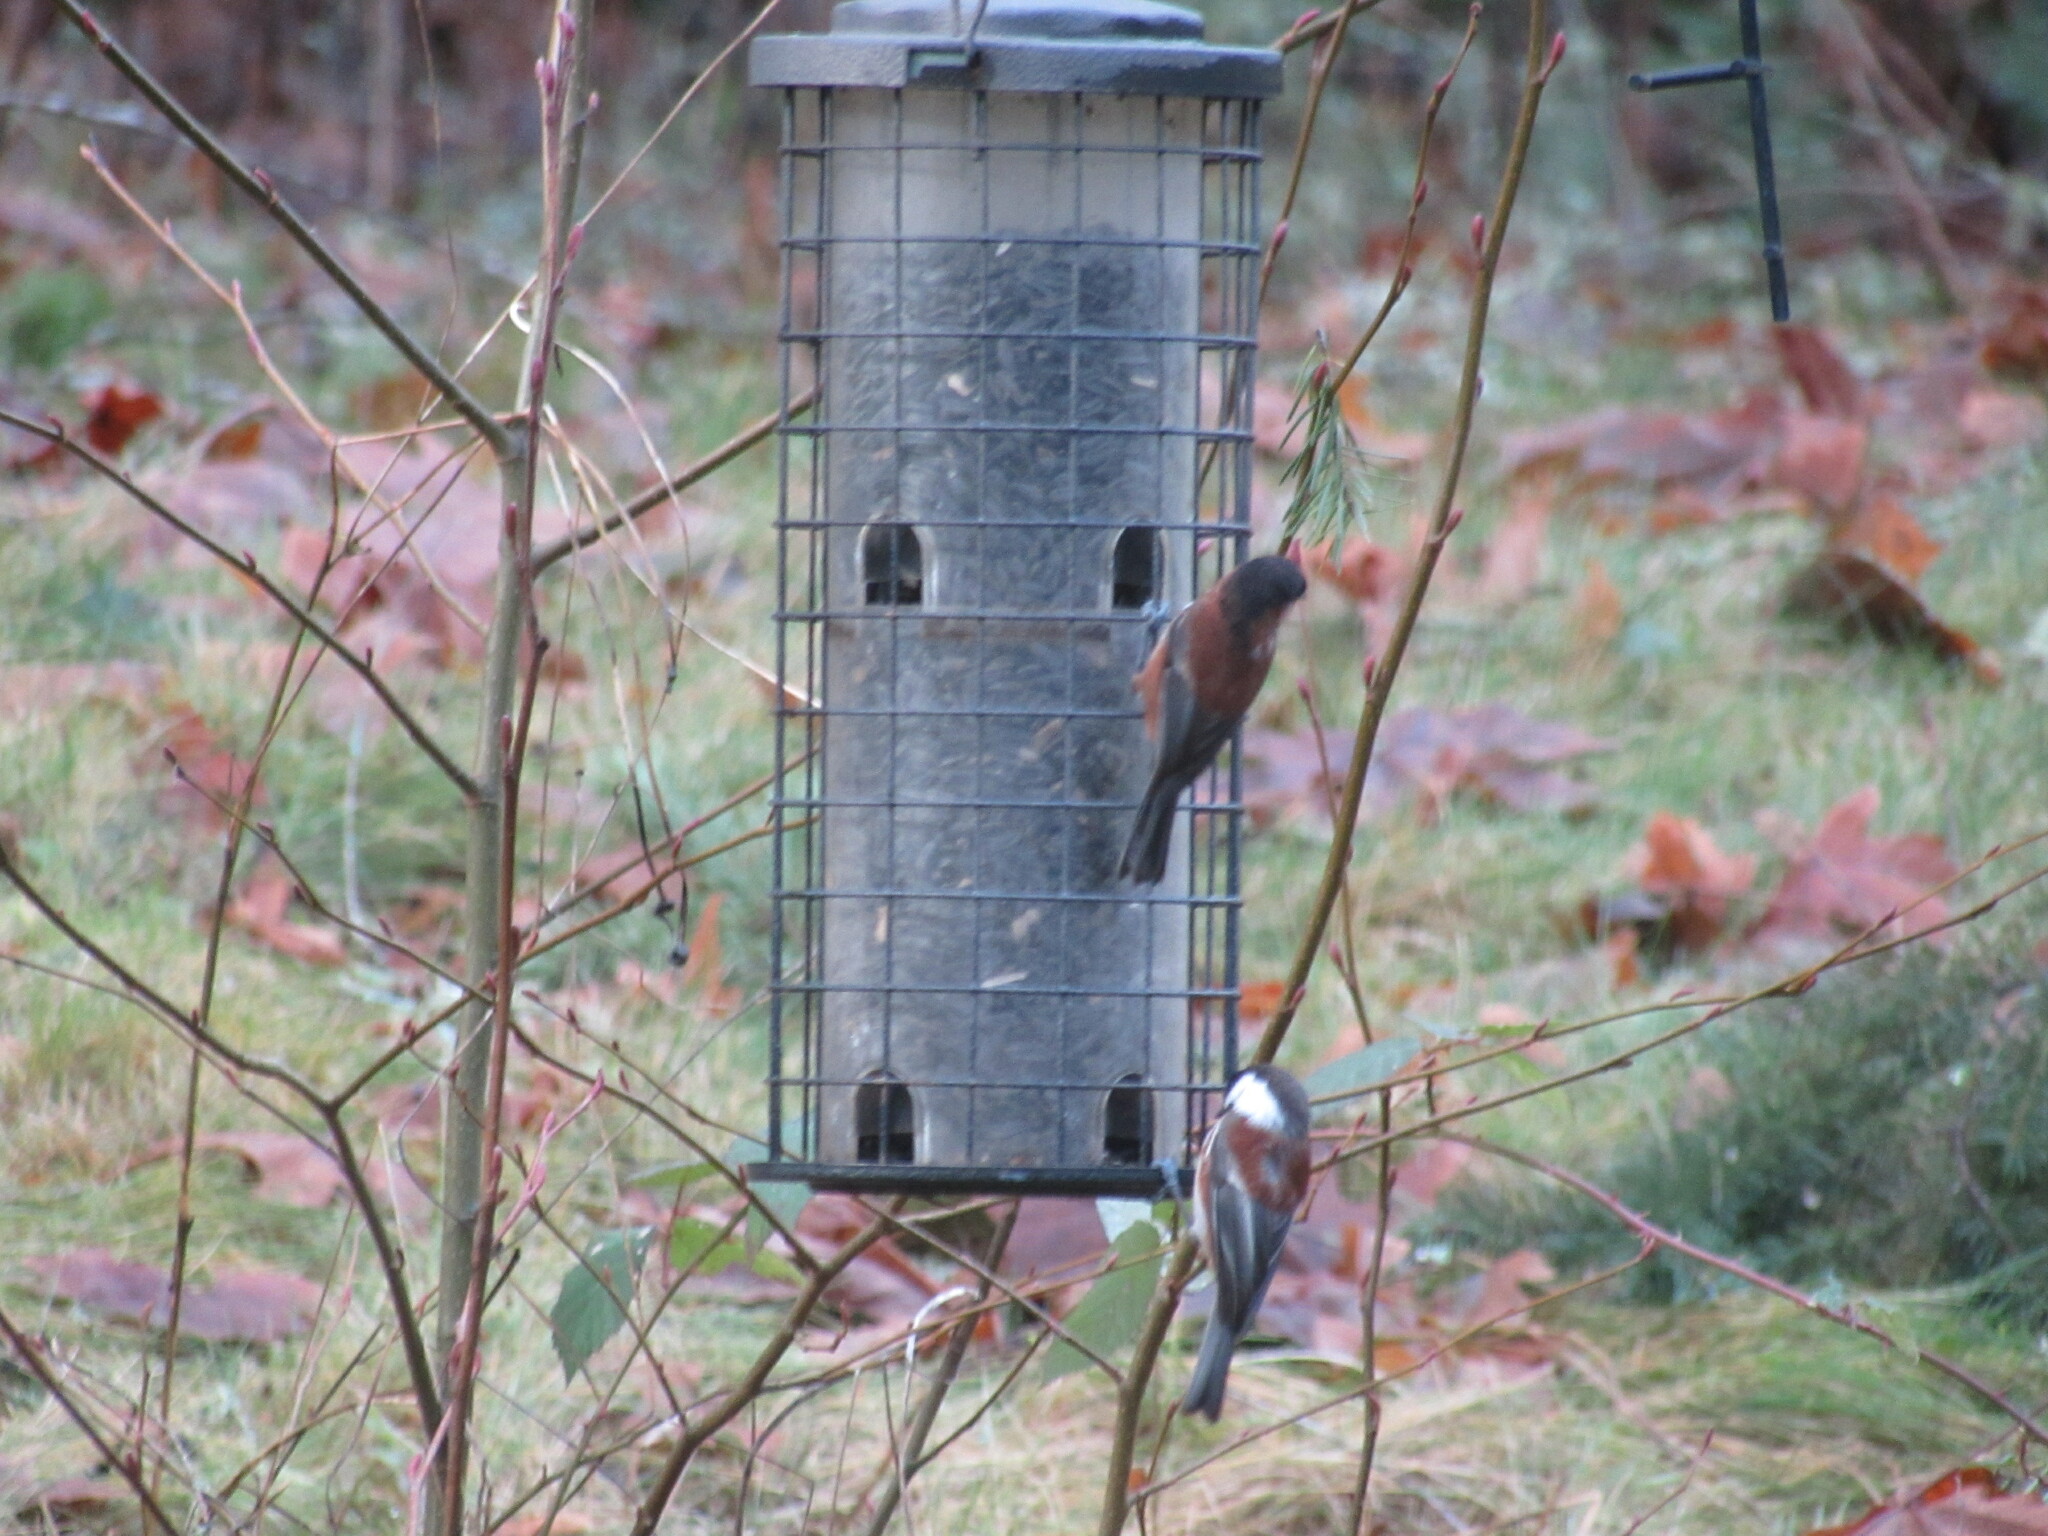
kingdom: Animalia
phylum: Chordata
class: Aves
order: Passeriformes
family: Paridae
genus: Poecile
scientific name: Poecile rufescens
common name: Chestnut-backed chickadee
